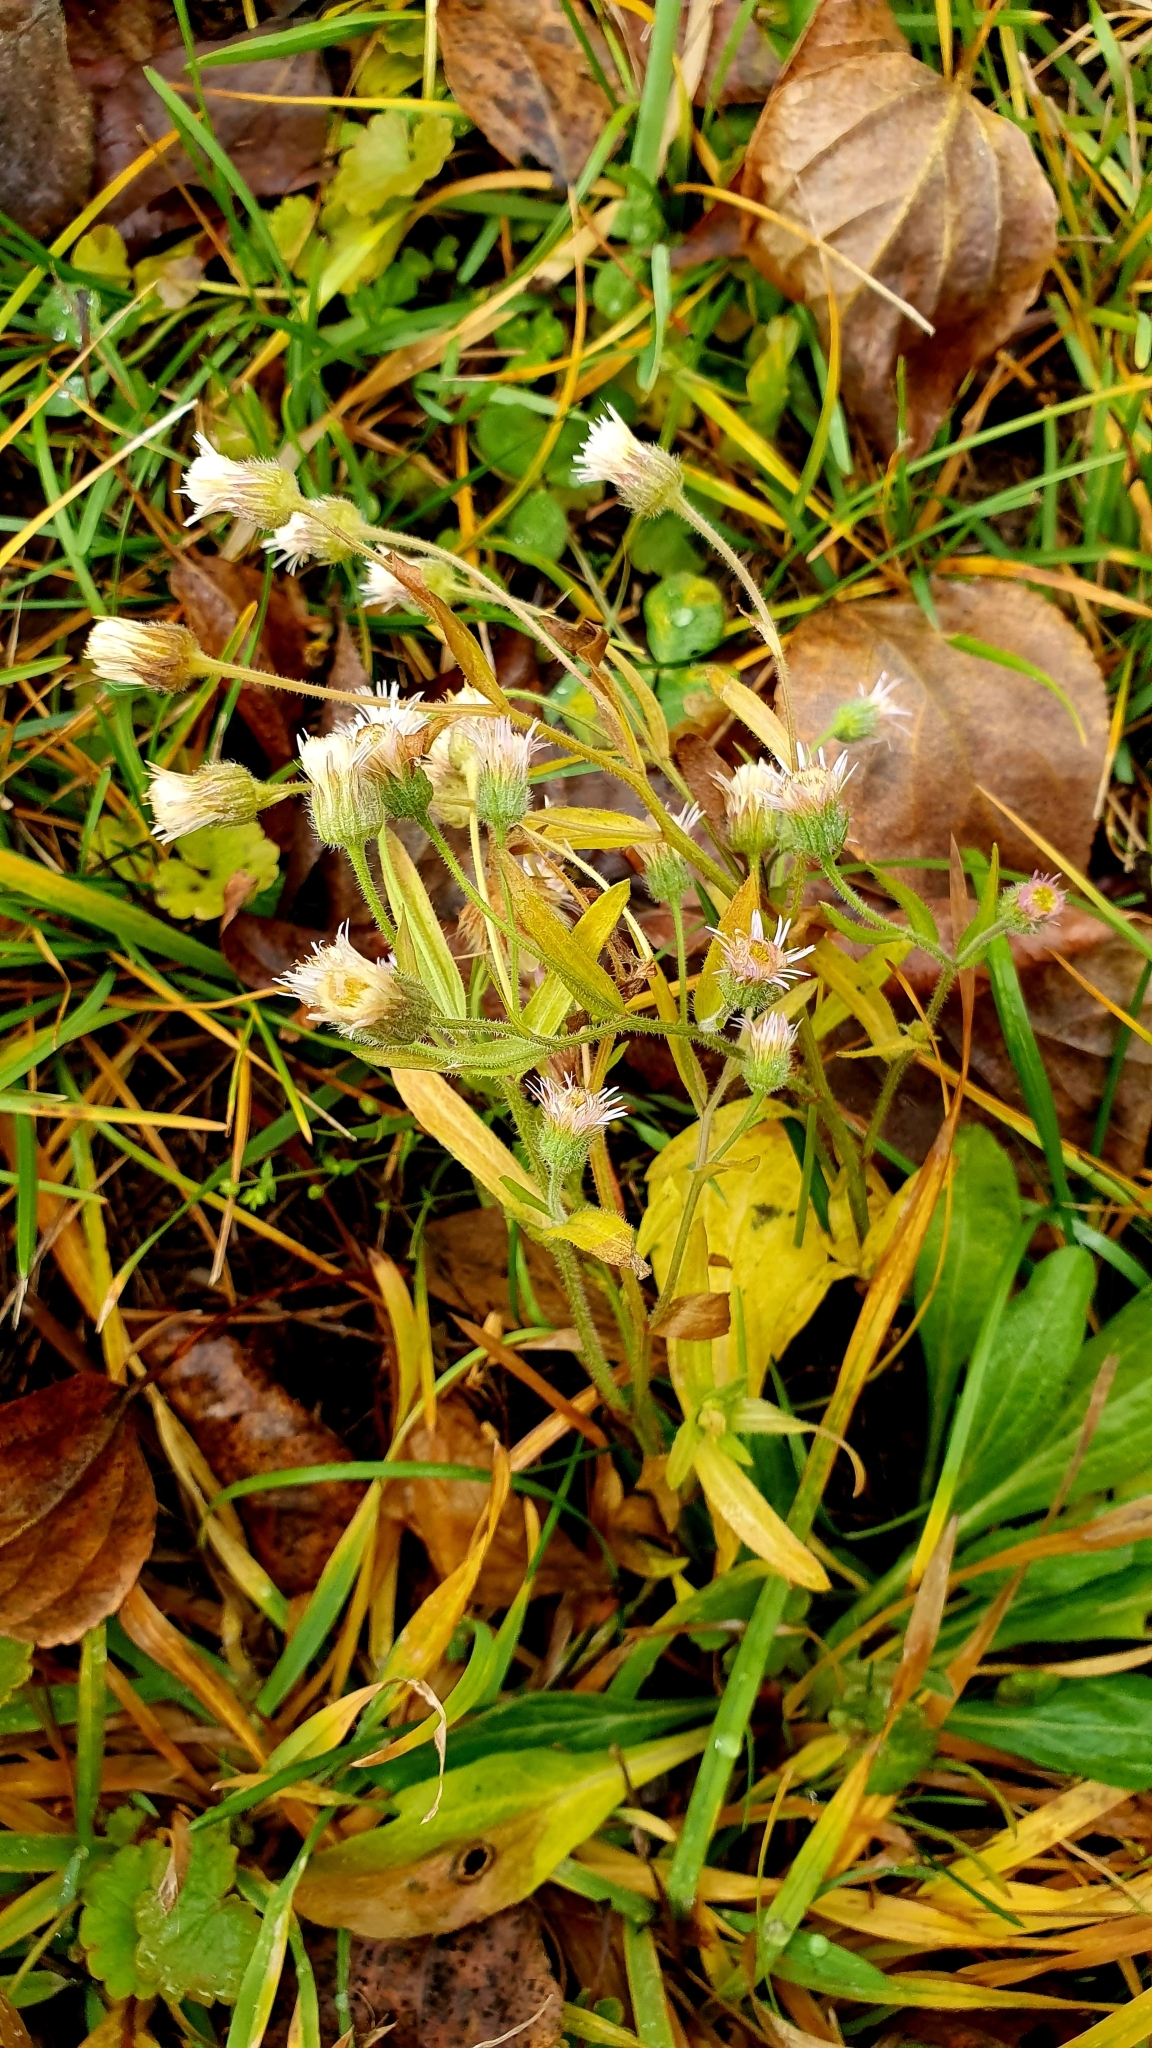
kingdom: Plantae
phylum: Tracheophyta
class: Magnoliopsida
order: Asterales
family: Asteraceae
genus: Erigeron
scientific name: Erigeron acris
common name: Blue fleabane
